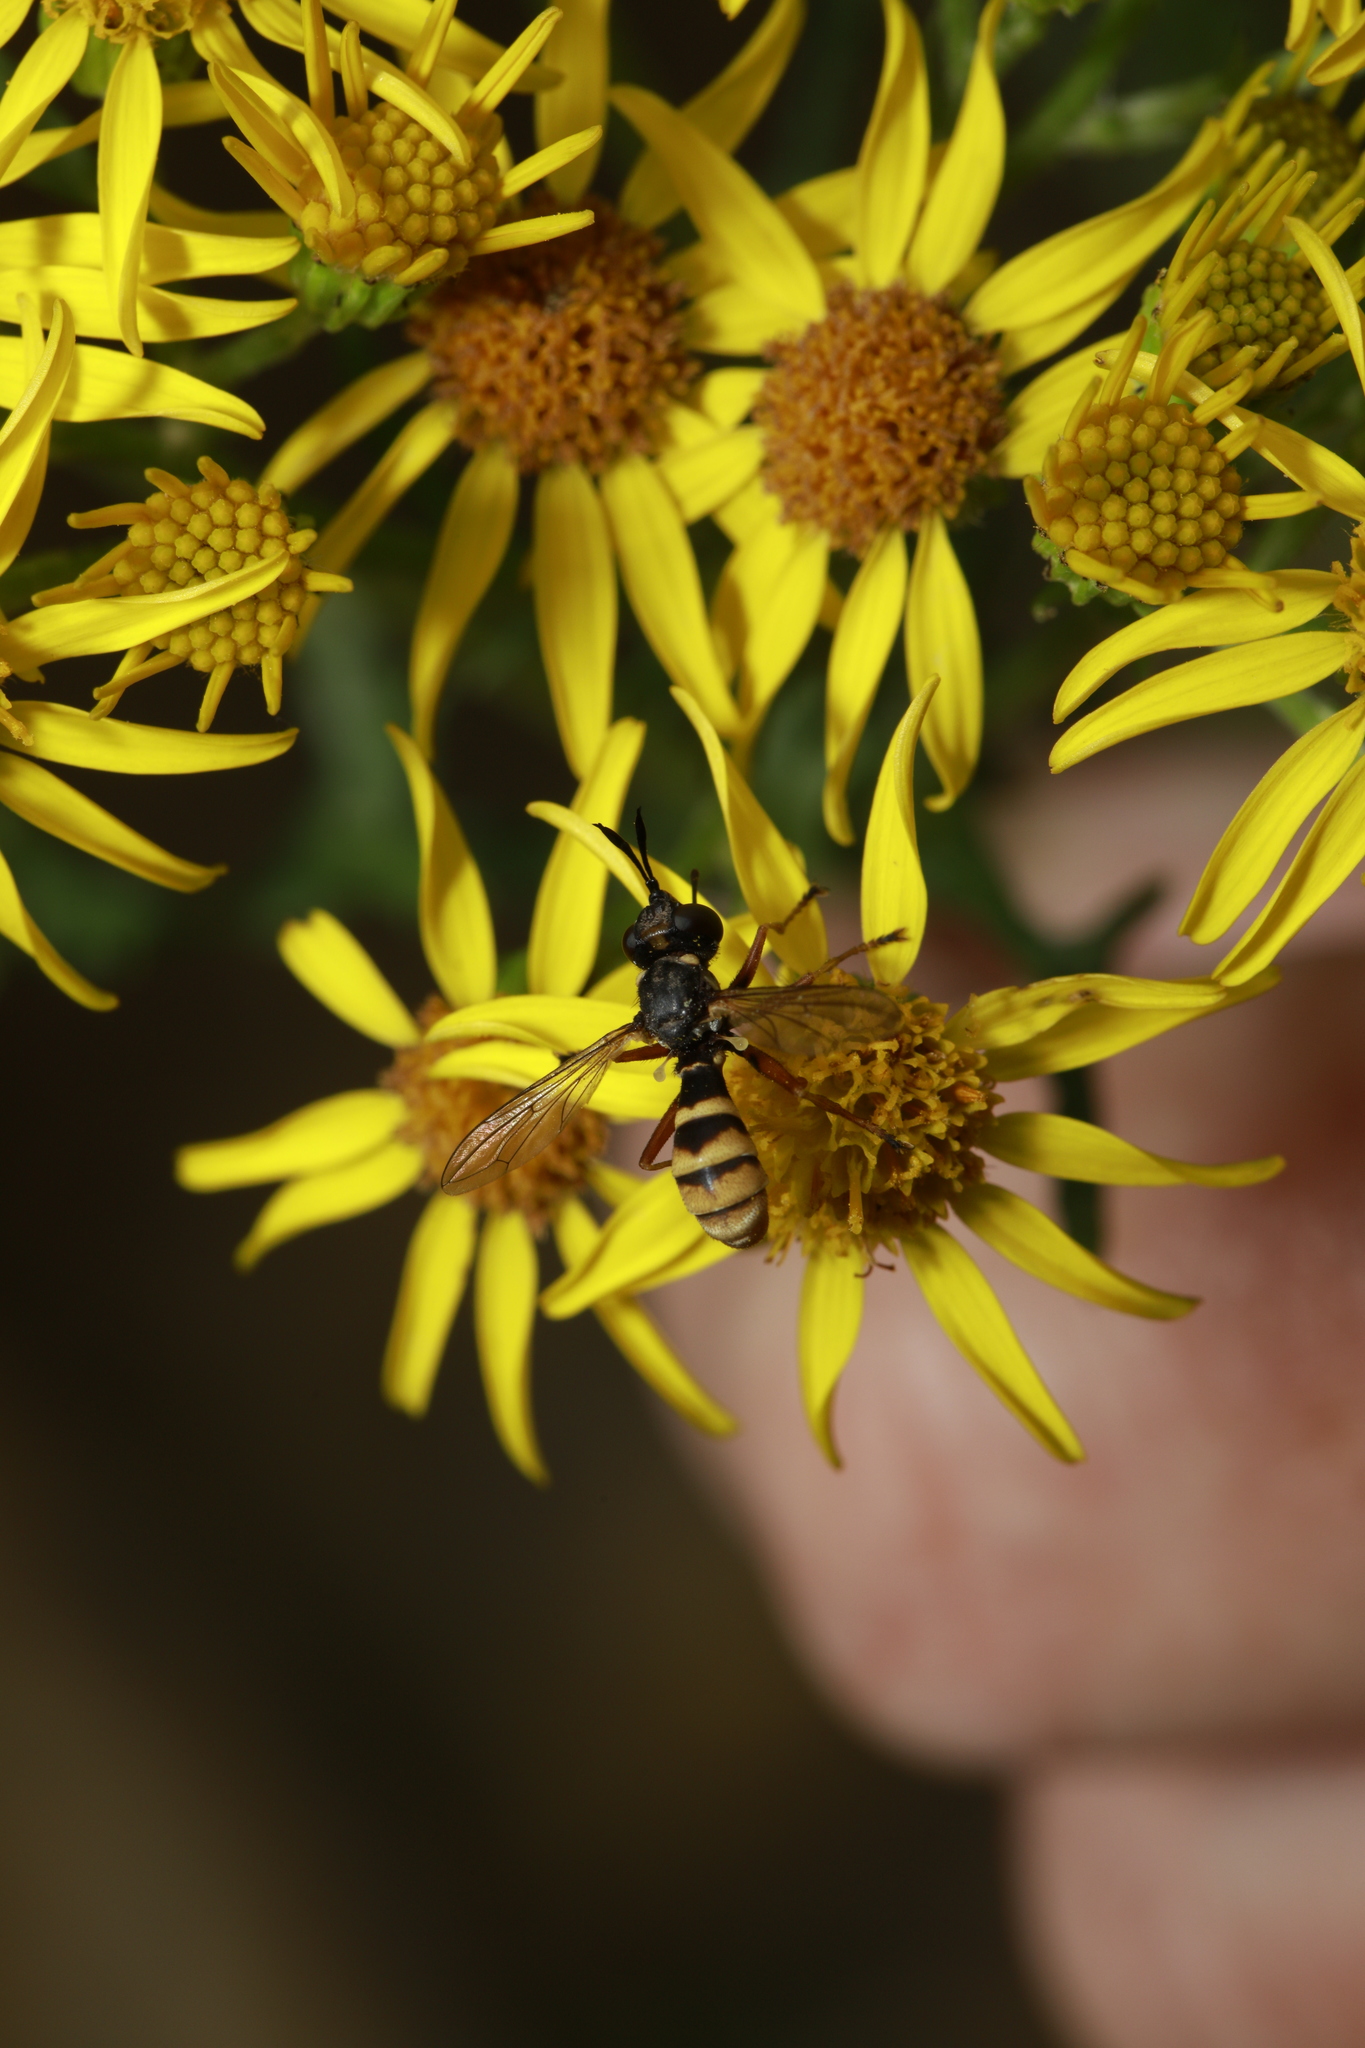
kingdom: Animalia
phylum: Arthropoda
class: Insecta
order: Diptera
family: Conopidae
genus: Conops
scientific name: Conops quadrifasciatus
